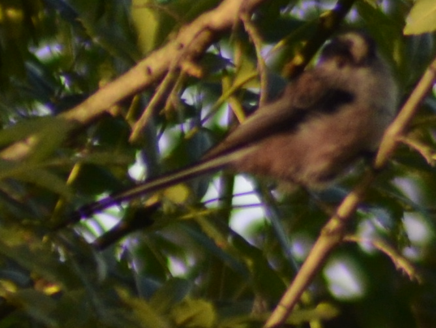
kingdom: Animalia
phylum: Chordata
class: Aves
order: Passeriformes
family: Aegithalidae
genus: Aegithalos
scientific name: Aegithalos caudatus
